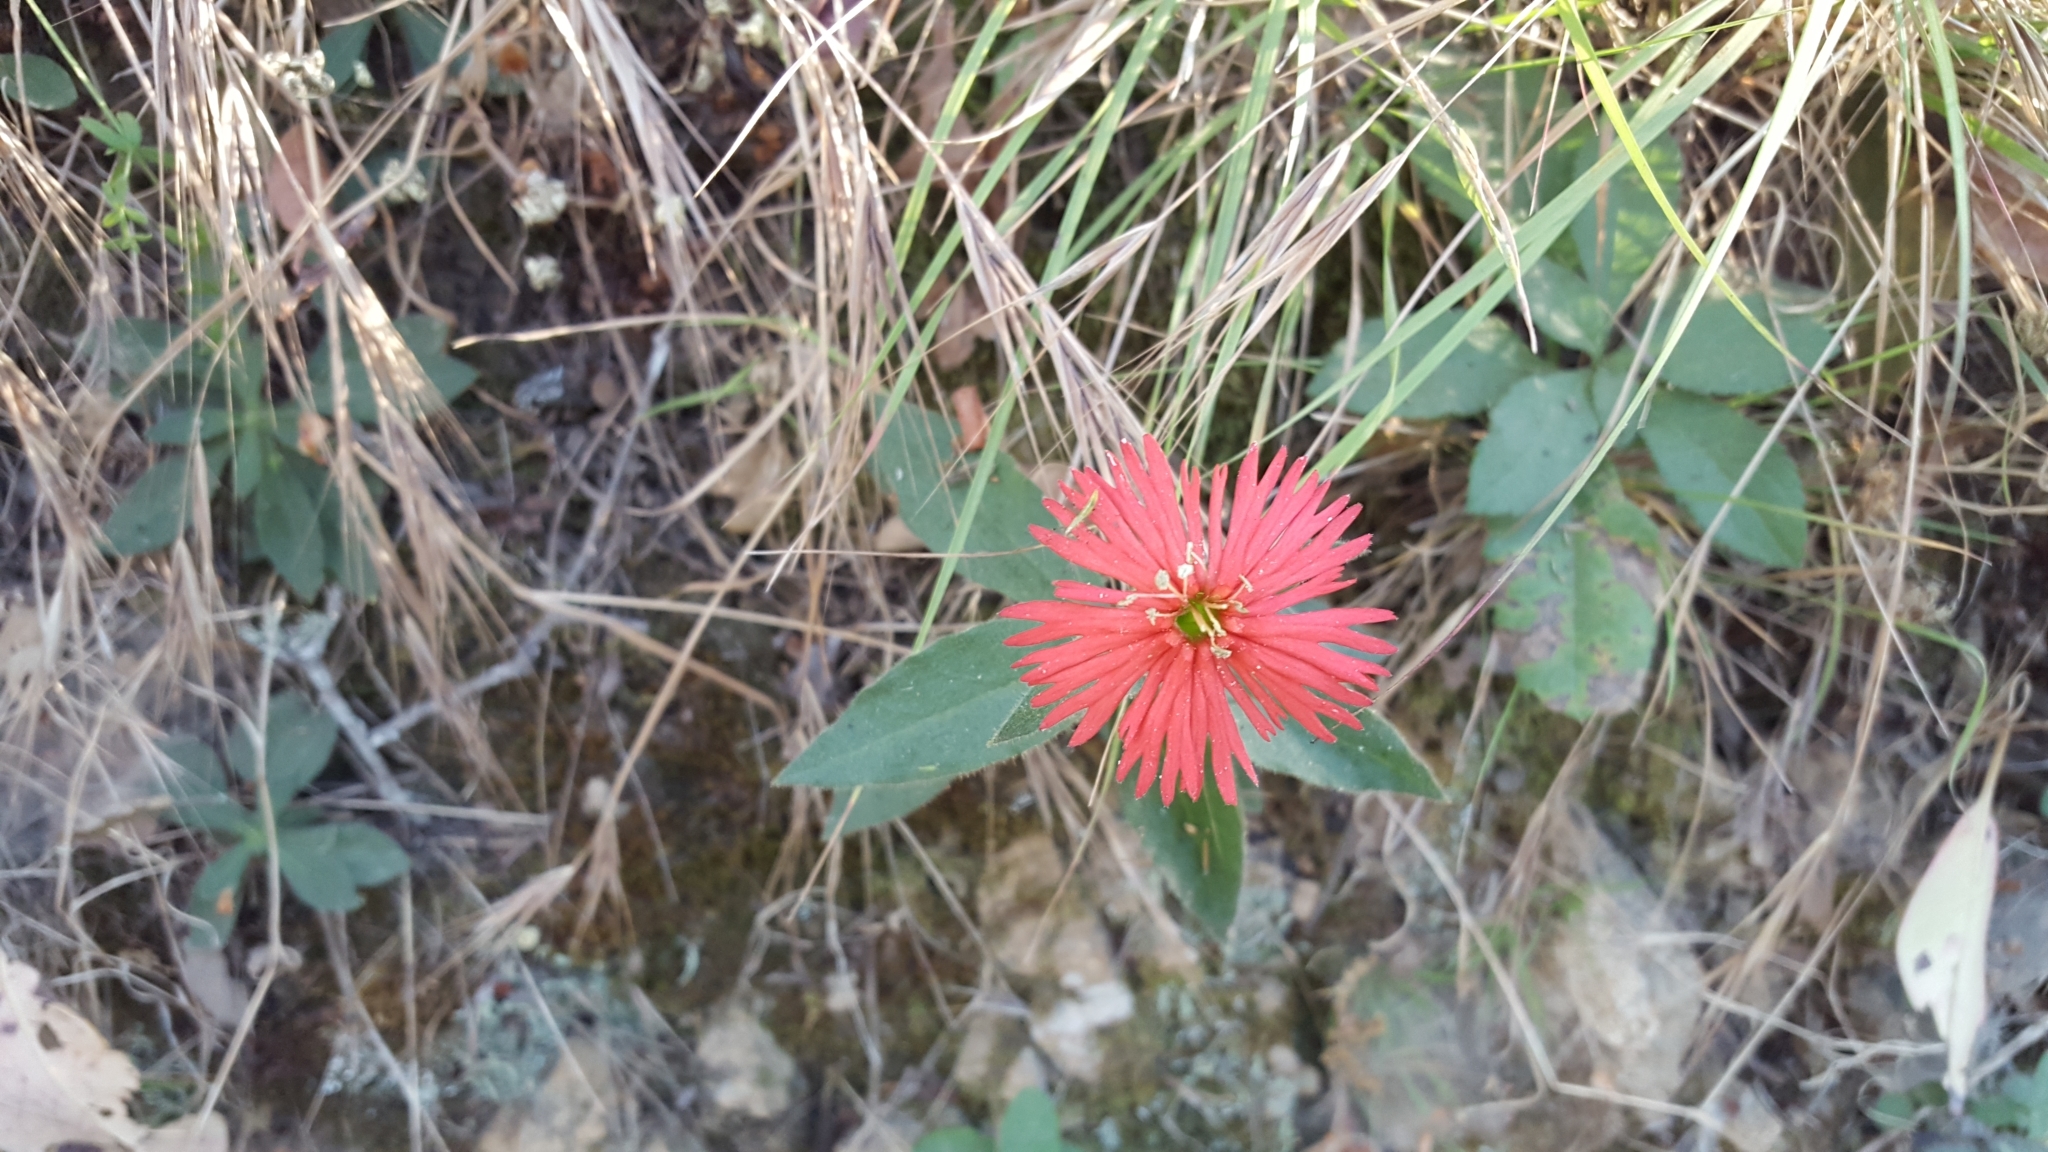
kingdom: Plantae
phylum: Tracheophyta
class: Magnoliopsida
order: Caryophyllales
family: Caryophyllaceae
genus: Silene
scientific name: Silene laciniata
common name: Indian-pink
